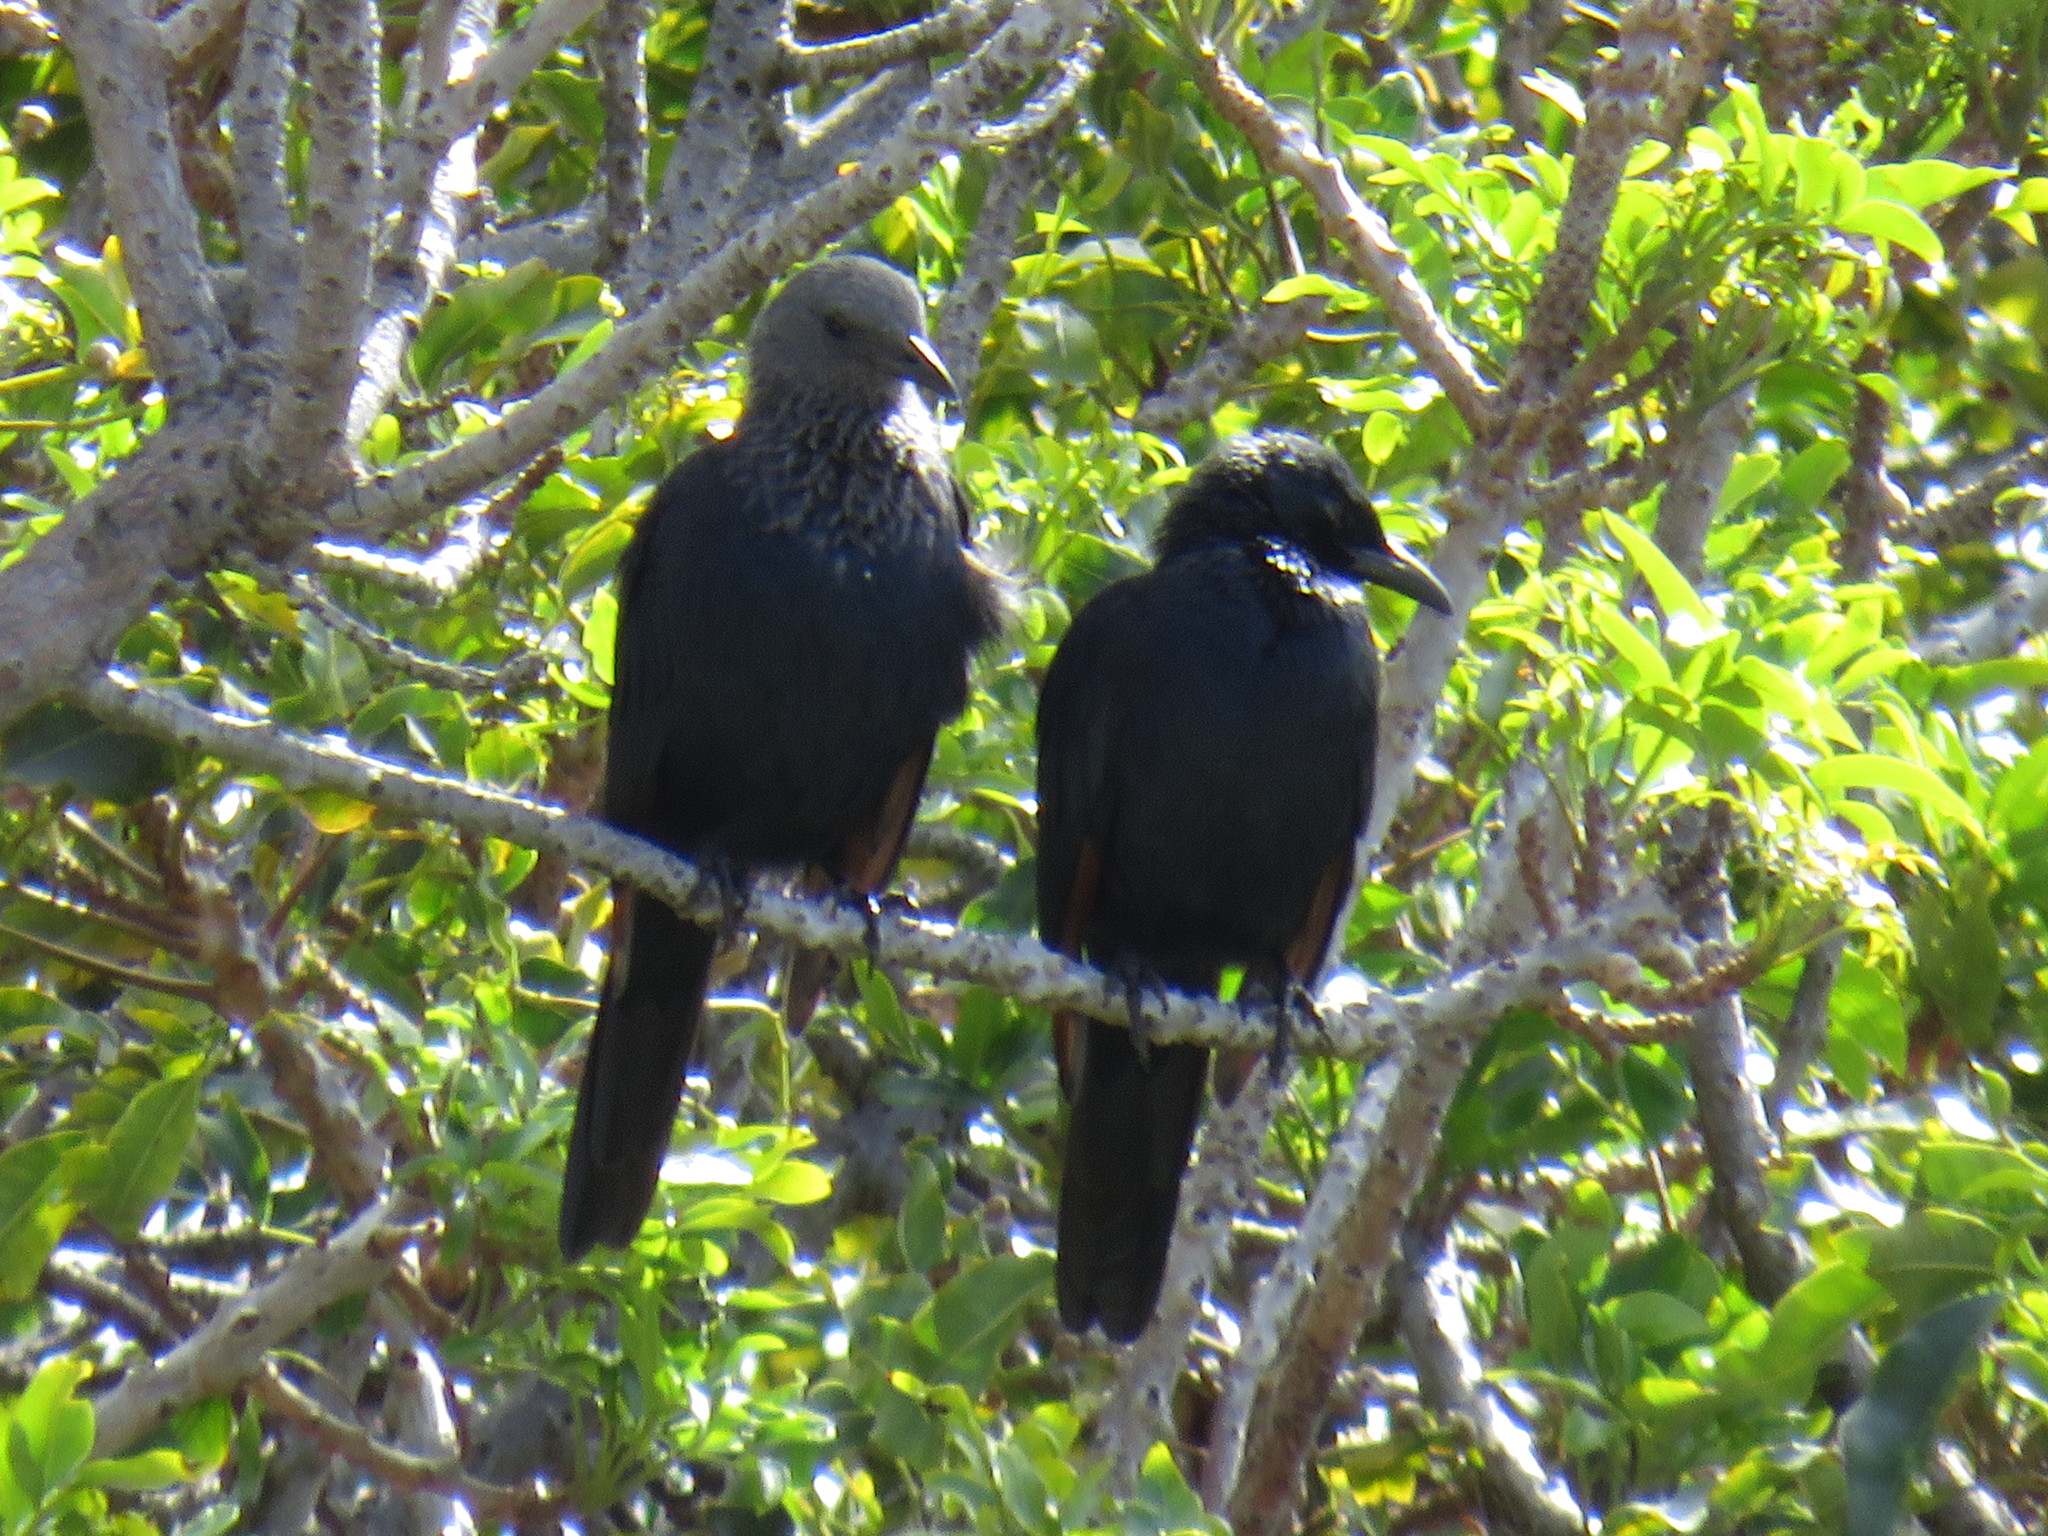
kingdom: Animalia
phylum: Chordata
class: Aves
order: Passeriformes
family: Sturnidae
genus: Onychognathus
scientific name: Onychognathus morio
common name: Red-winged starling
